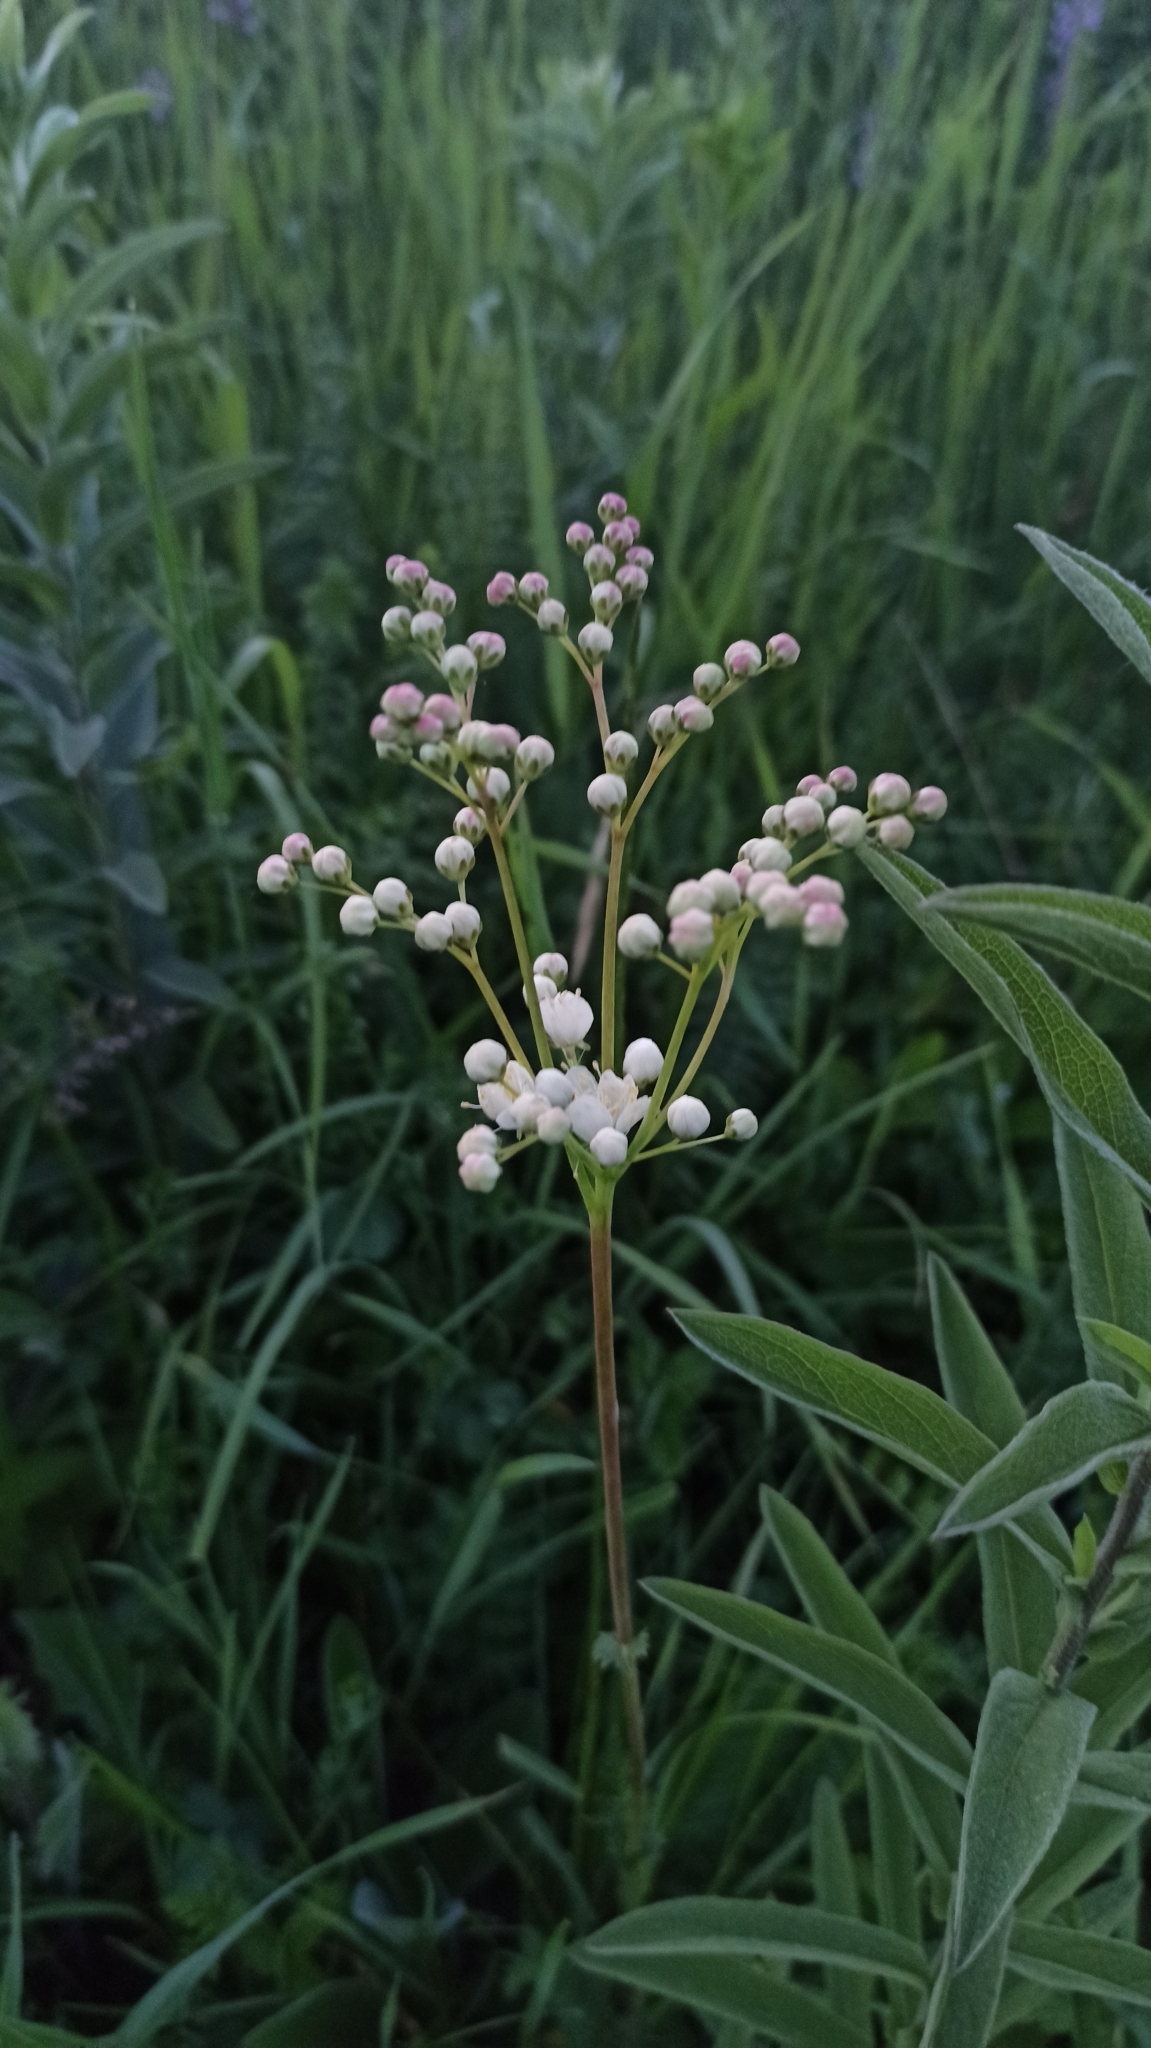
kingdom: Plantae
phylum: Tracheophyta
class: Magnoliopsida
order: Rosales
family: Rosaceae
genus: Filipendula
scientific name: Filipendula vulgaris
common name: Dropwort
